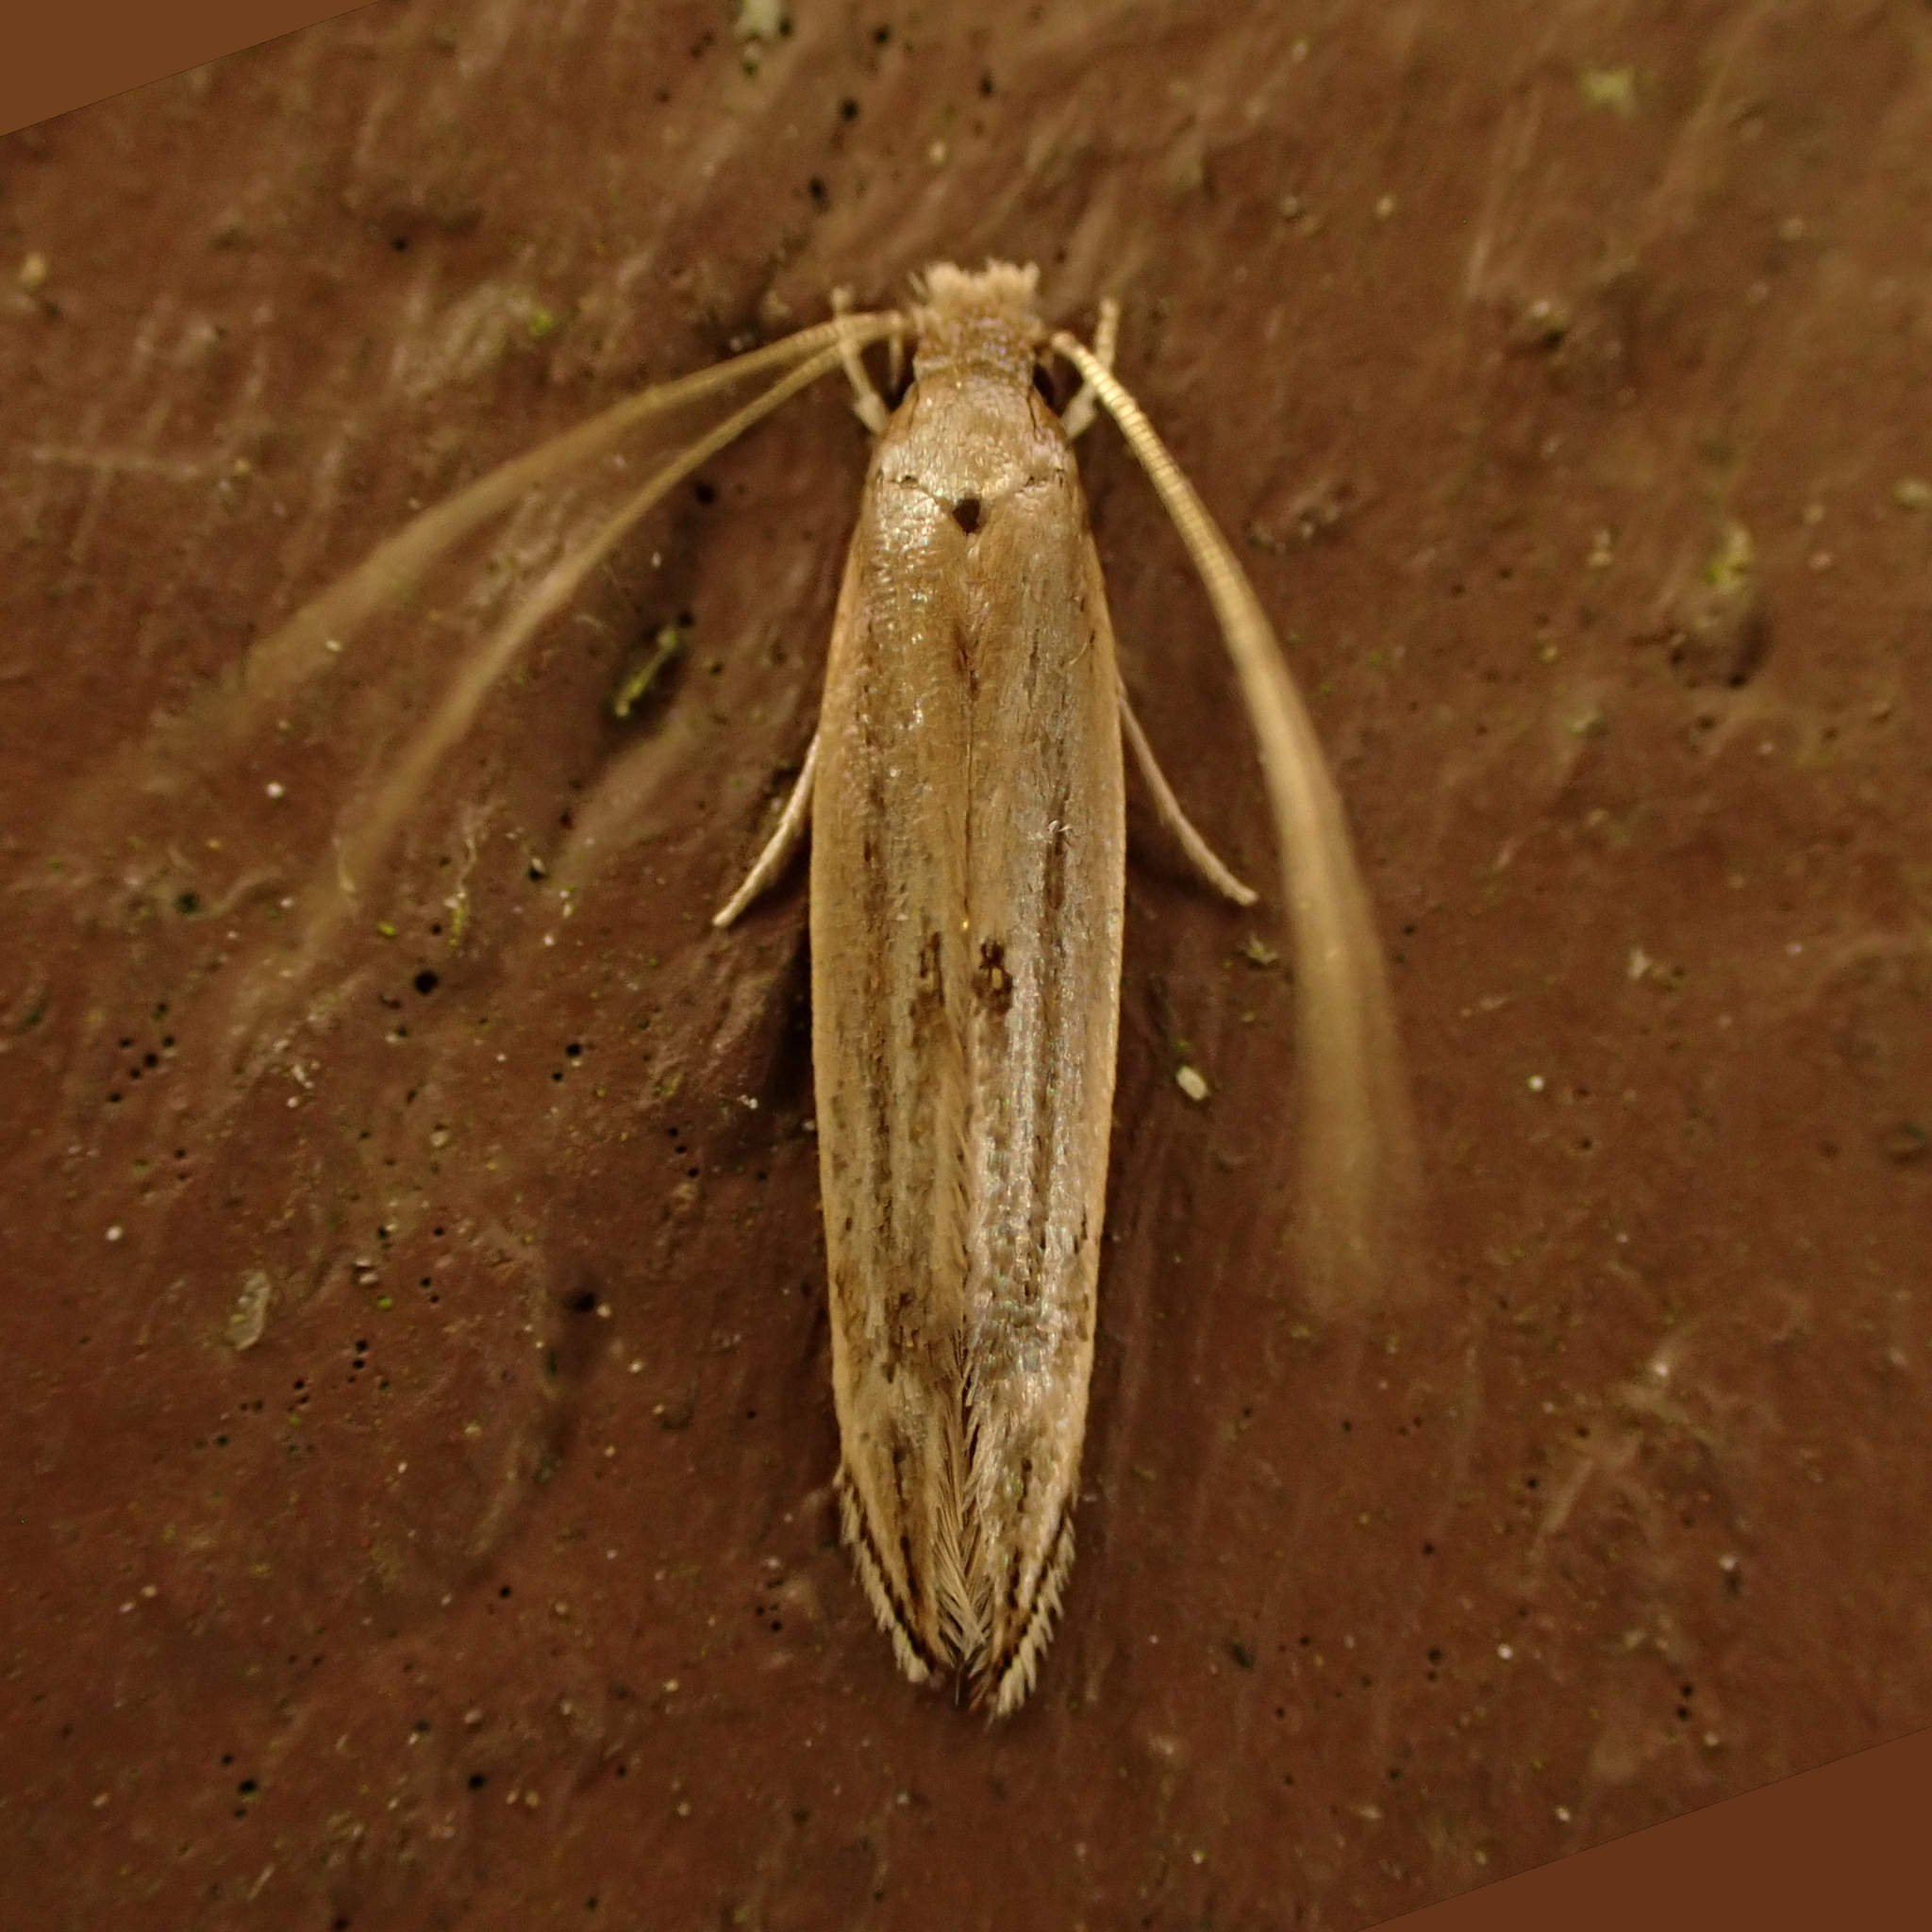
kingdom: Animalia
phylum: Arthropoda
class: Insecta
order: Lepidoptera
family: Tineidae
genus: Amphixystis
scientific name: Amphixystis hapsimacha
